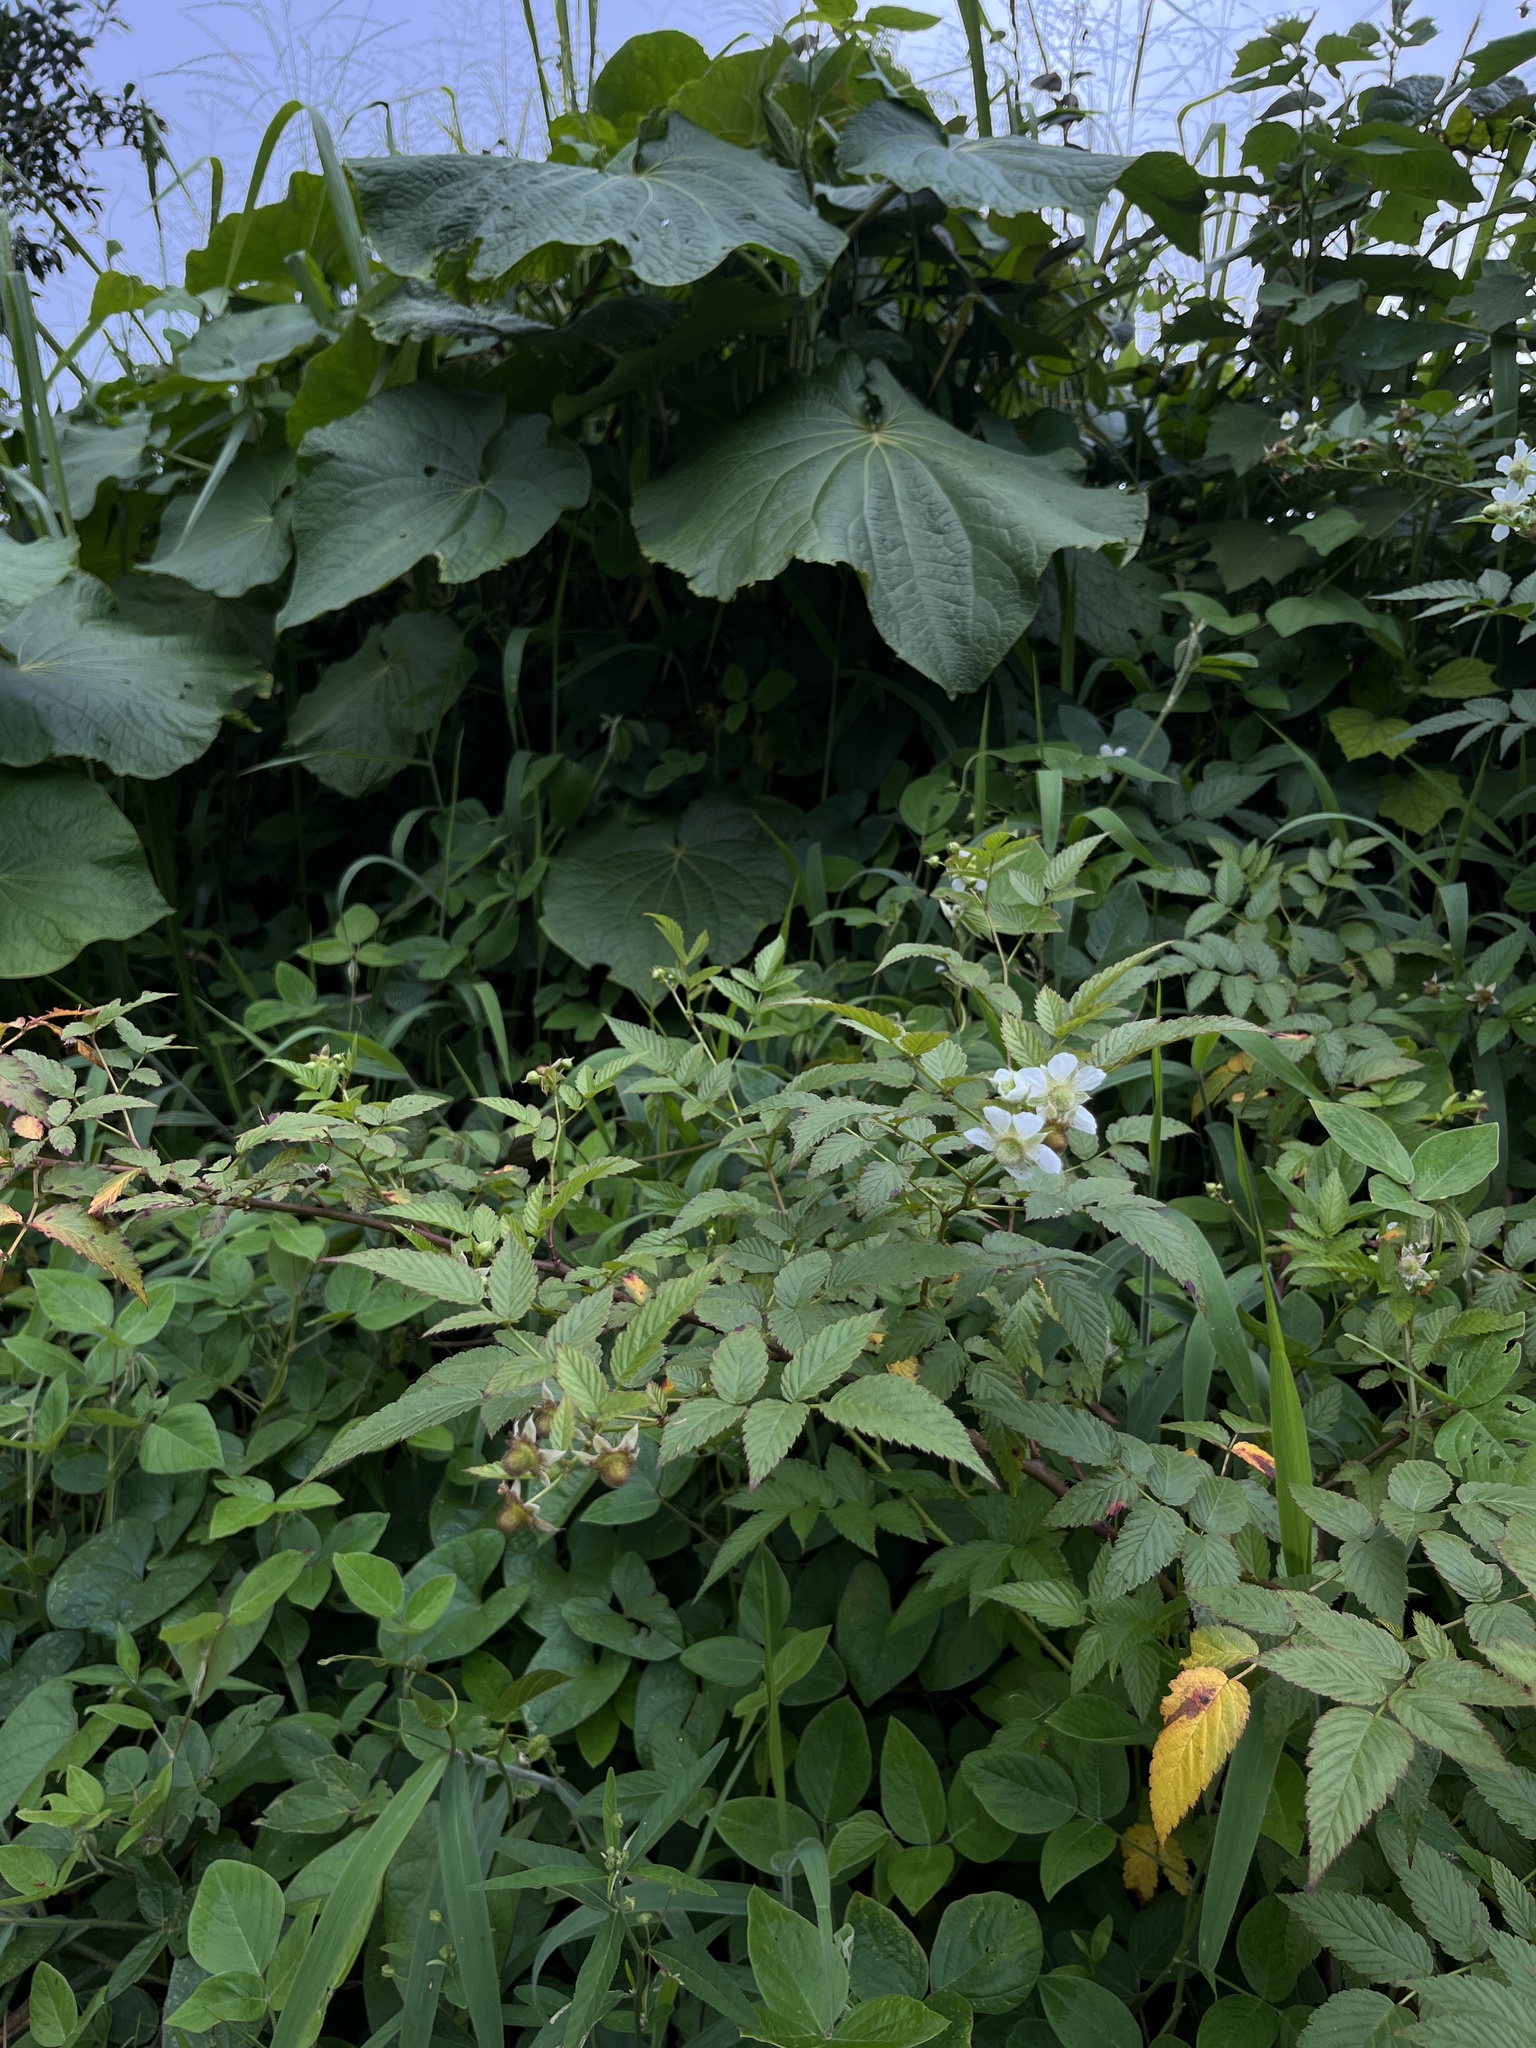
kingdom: Plantae
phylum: Tracheophyta
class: Magnoliopsida
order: Rosales
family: Rosaceae
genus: Rubus
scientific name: Rubus rosifolius
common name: Roseleaf raspberry
